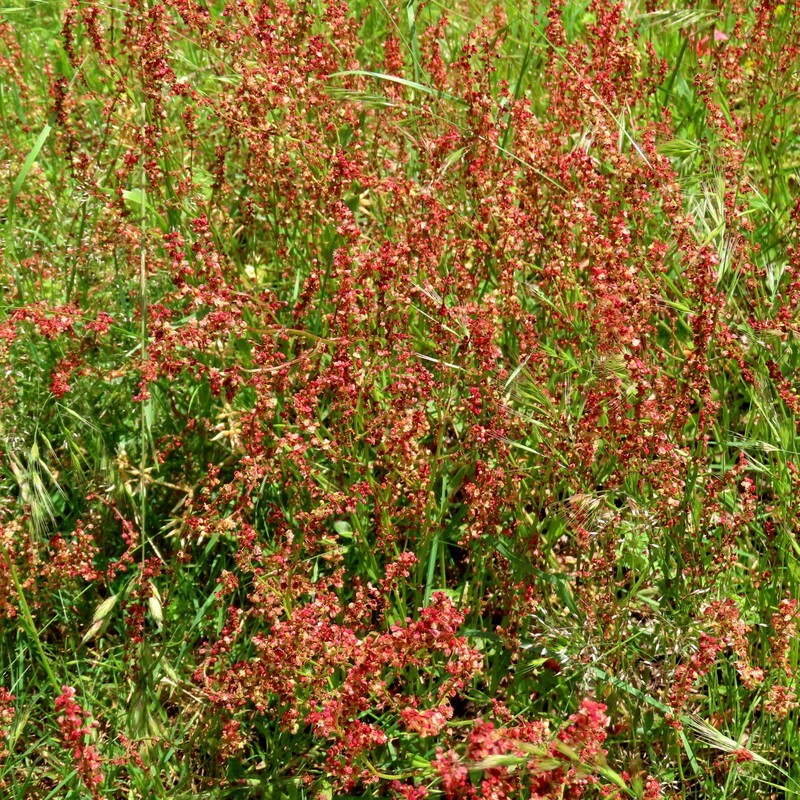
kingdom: Plantae
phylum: Tracheophyta
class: Magnoliopsida
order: Caryophyllales
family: Polygonaceae
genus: Rumex
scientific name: Rumex acetosella
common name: Common sheep sorrel
